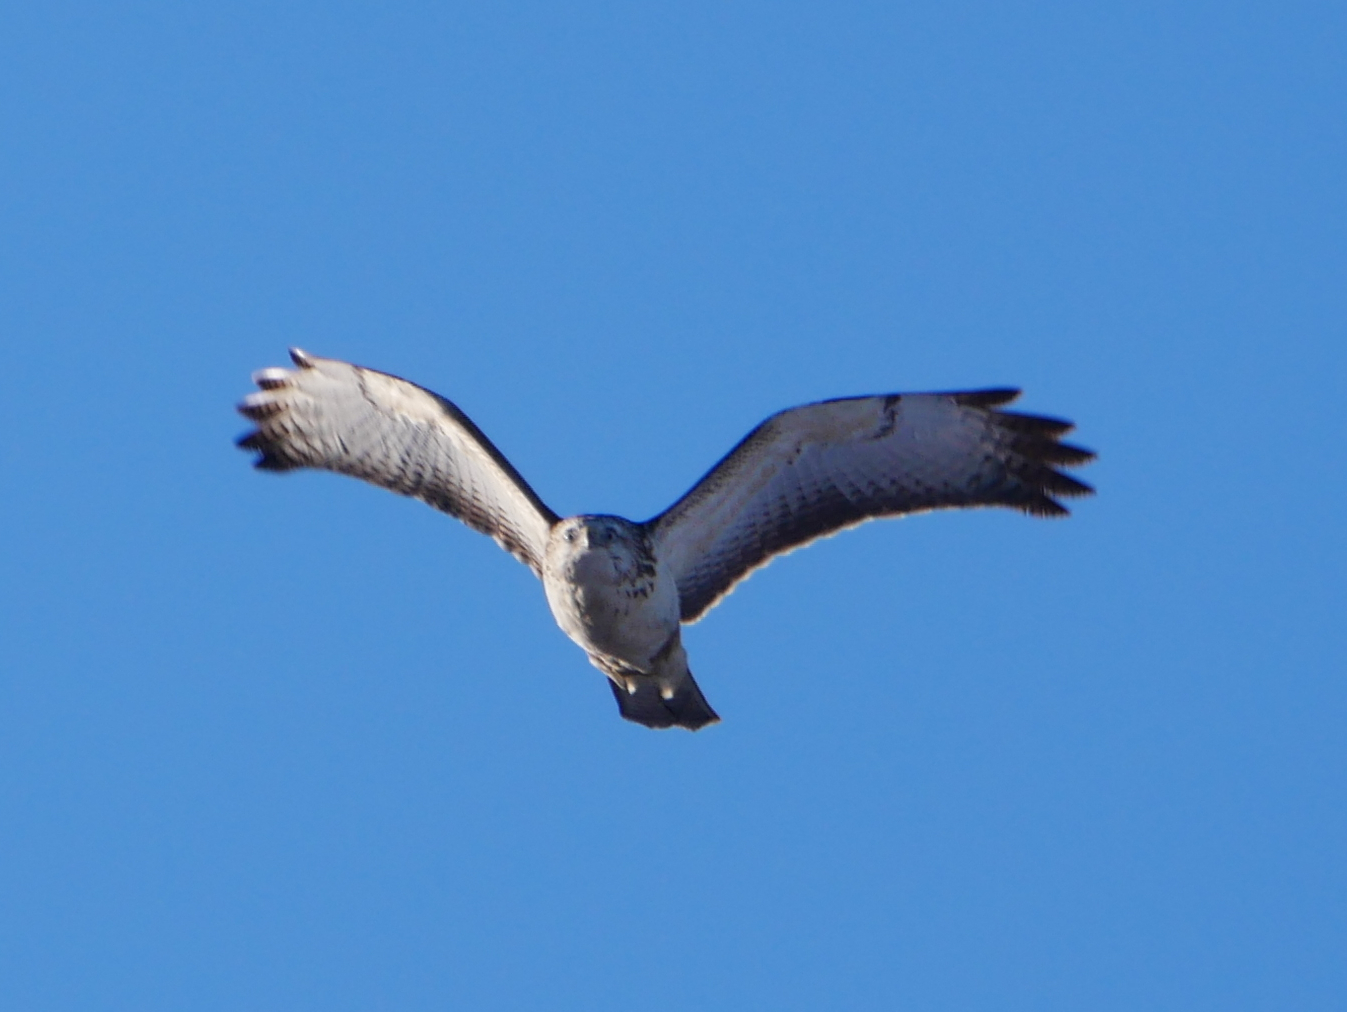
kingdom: Animalia
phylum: Chordata
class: Aves
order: Accipitriformes
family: Accipitridae
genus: Buteo
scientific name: Buteo buteo
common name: Common buzzard
